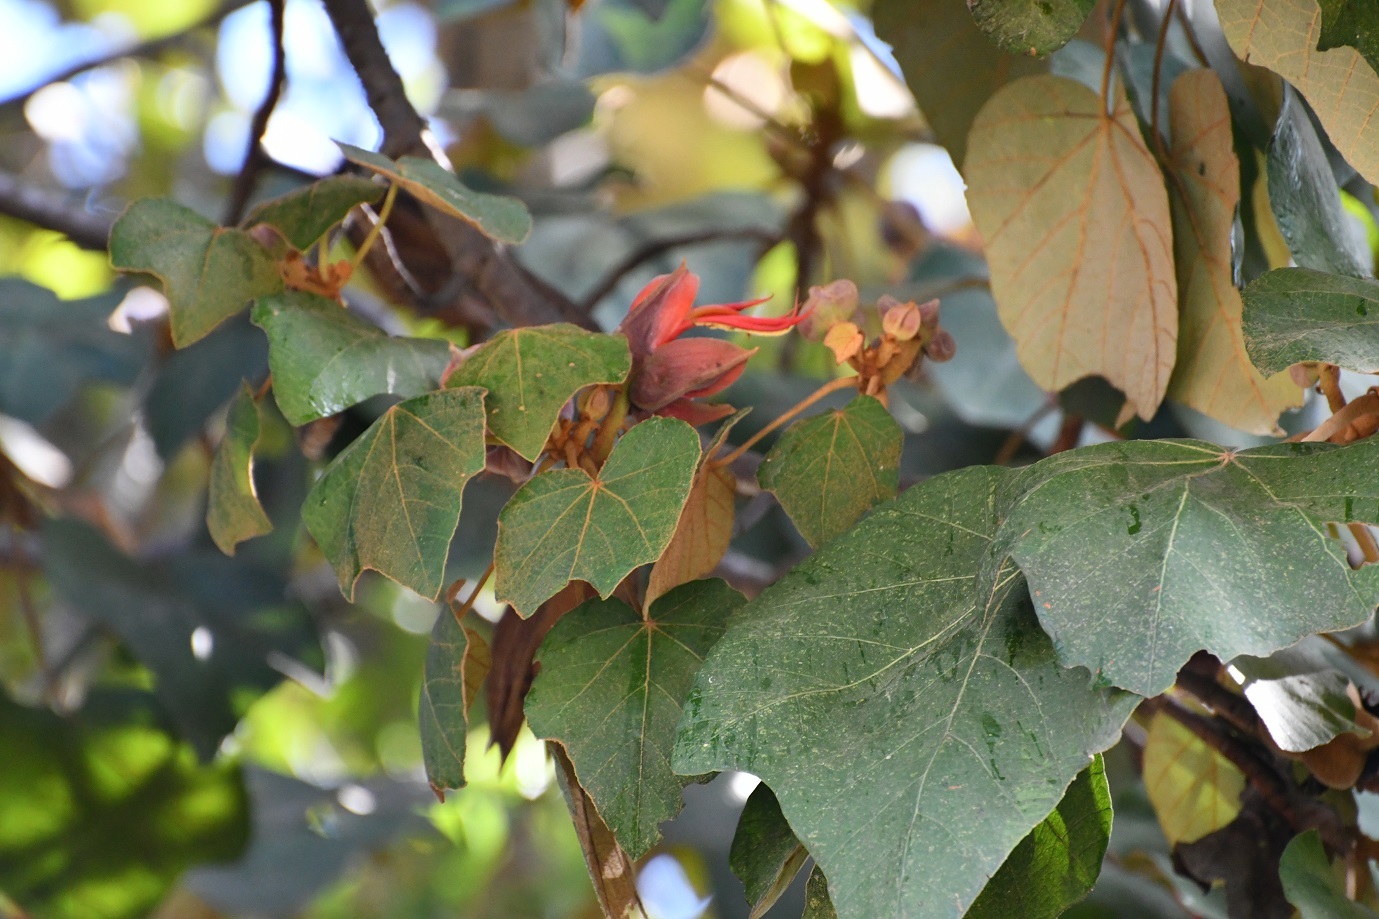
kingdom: Plantae
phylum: Tracheophyta
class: Magnoliopsida
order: Malvales
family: Malvaceae
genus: Chiranthodendron
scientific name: Chiranthodendron pentadactylon
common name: Mexican-hat-plant
